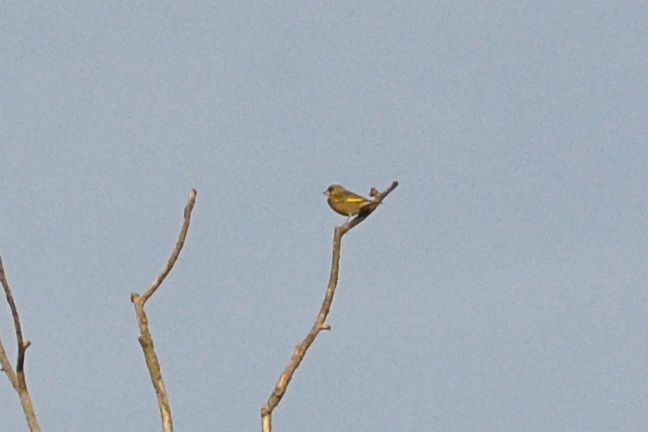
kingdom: Plantae
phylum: Tracheophyta
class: Liliopsida
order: Poales
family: Poaceae
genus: Chloris
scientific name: Chloris chloris
